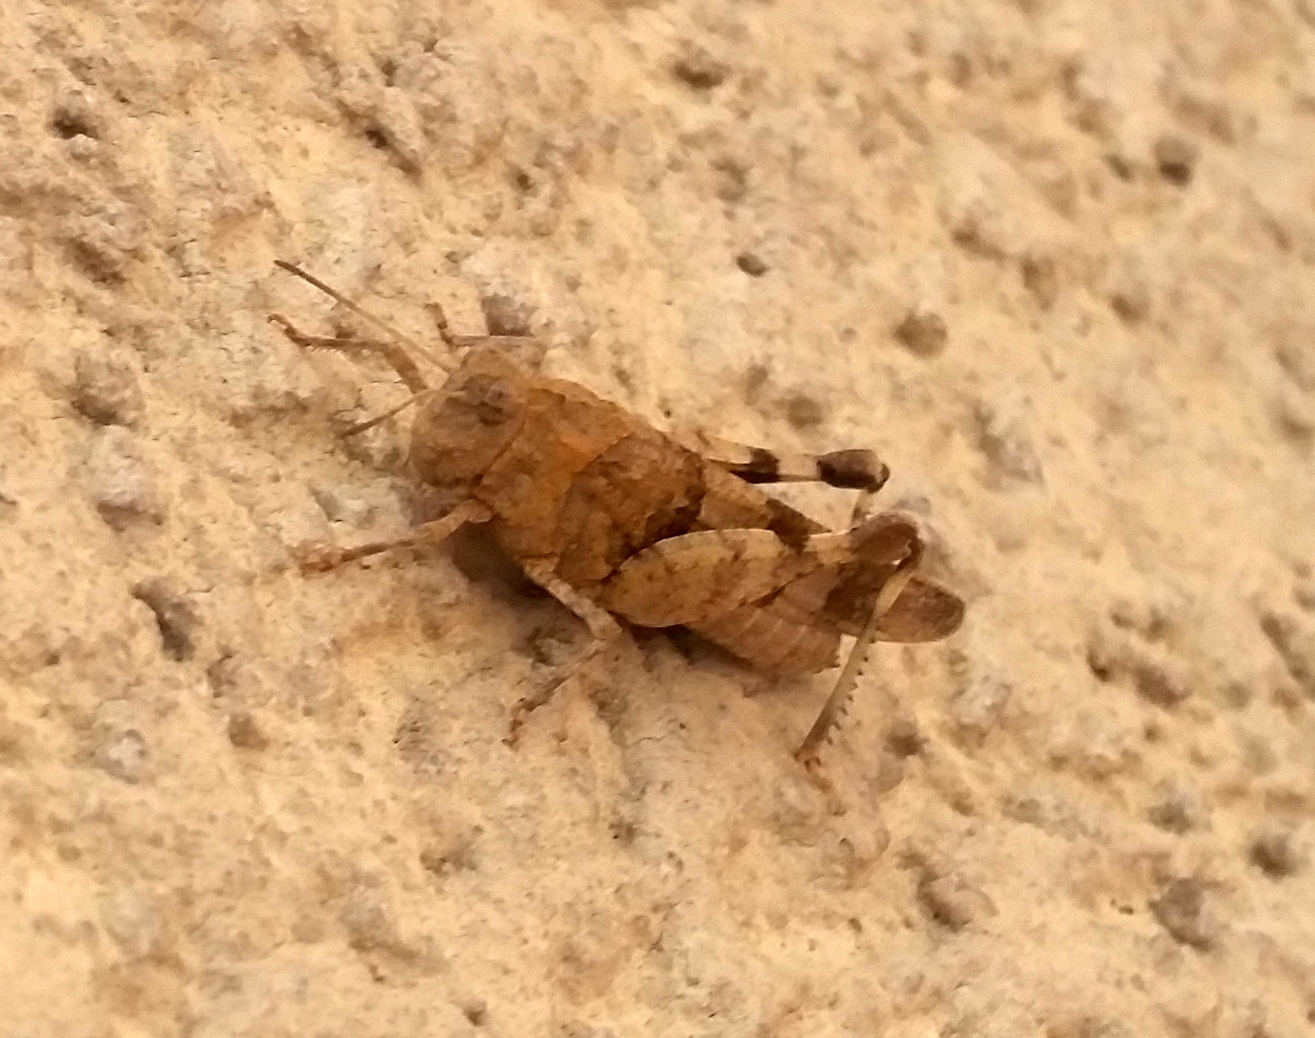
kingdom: Animalia
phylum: Arthropoda
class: Insecta
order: Orthoptera
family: Acrididae
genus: Oedipoda
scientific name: Oedipoda caerulescens
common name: Blue-winged grasshopper
